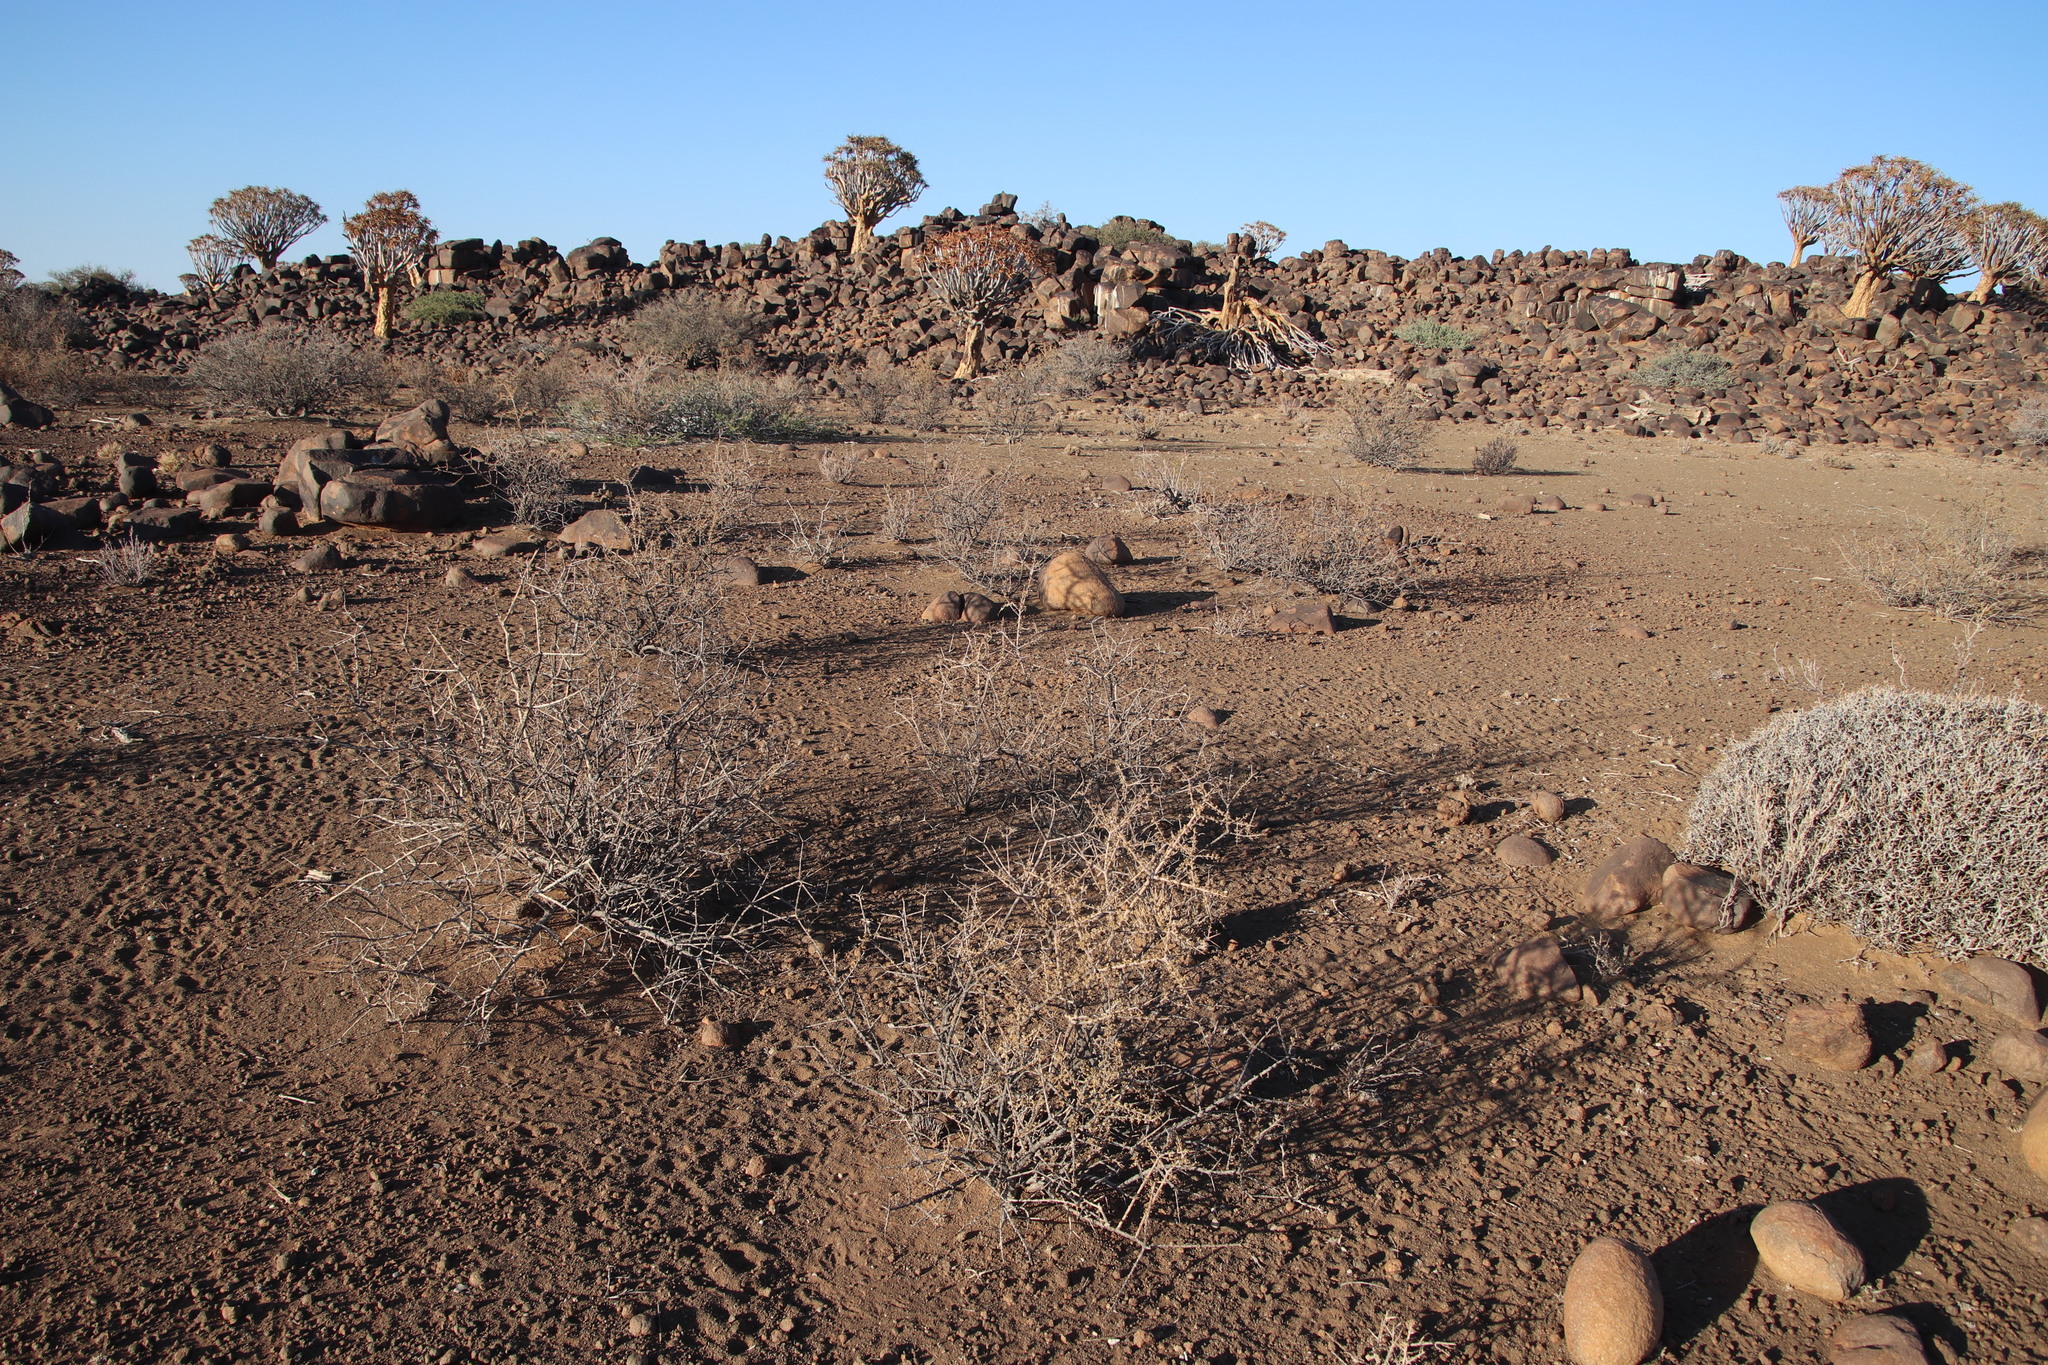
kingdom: Plantae
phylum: Tracheophyta
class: Magnoliopsida
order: Lamiales
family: Bignoniaceae
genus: Rhigozum
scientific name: Rhigozum trichotomum
